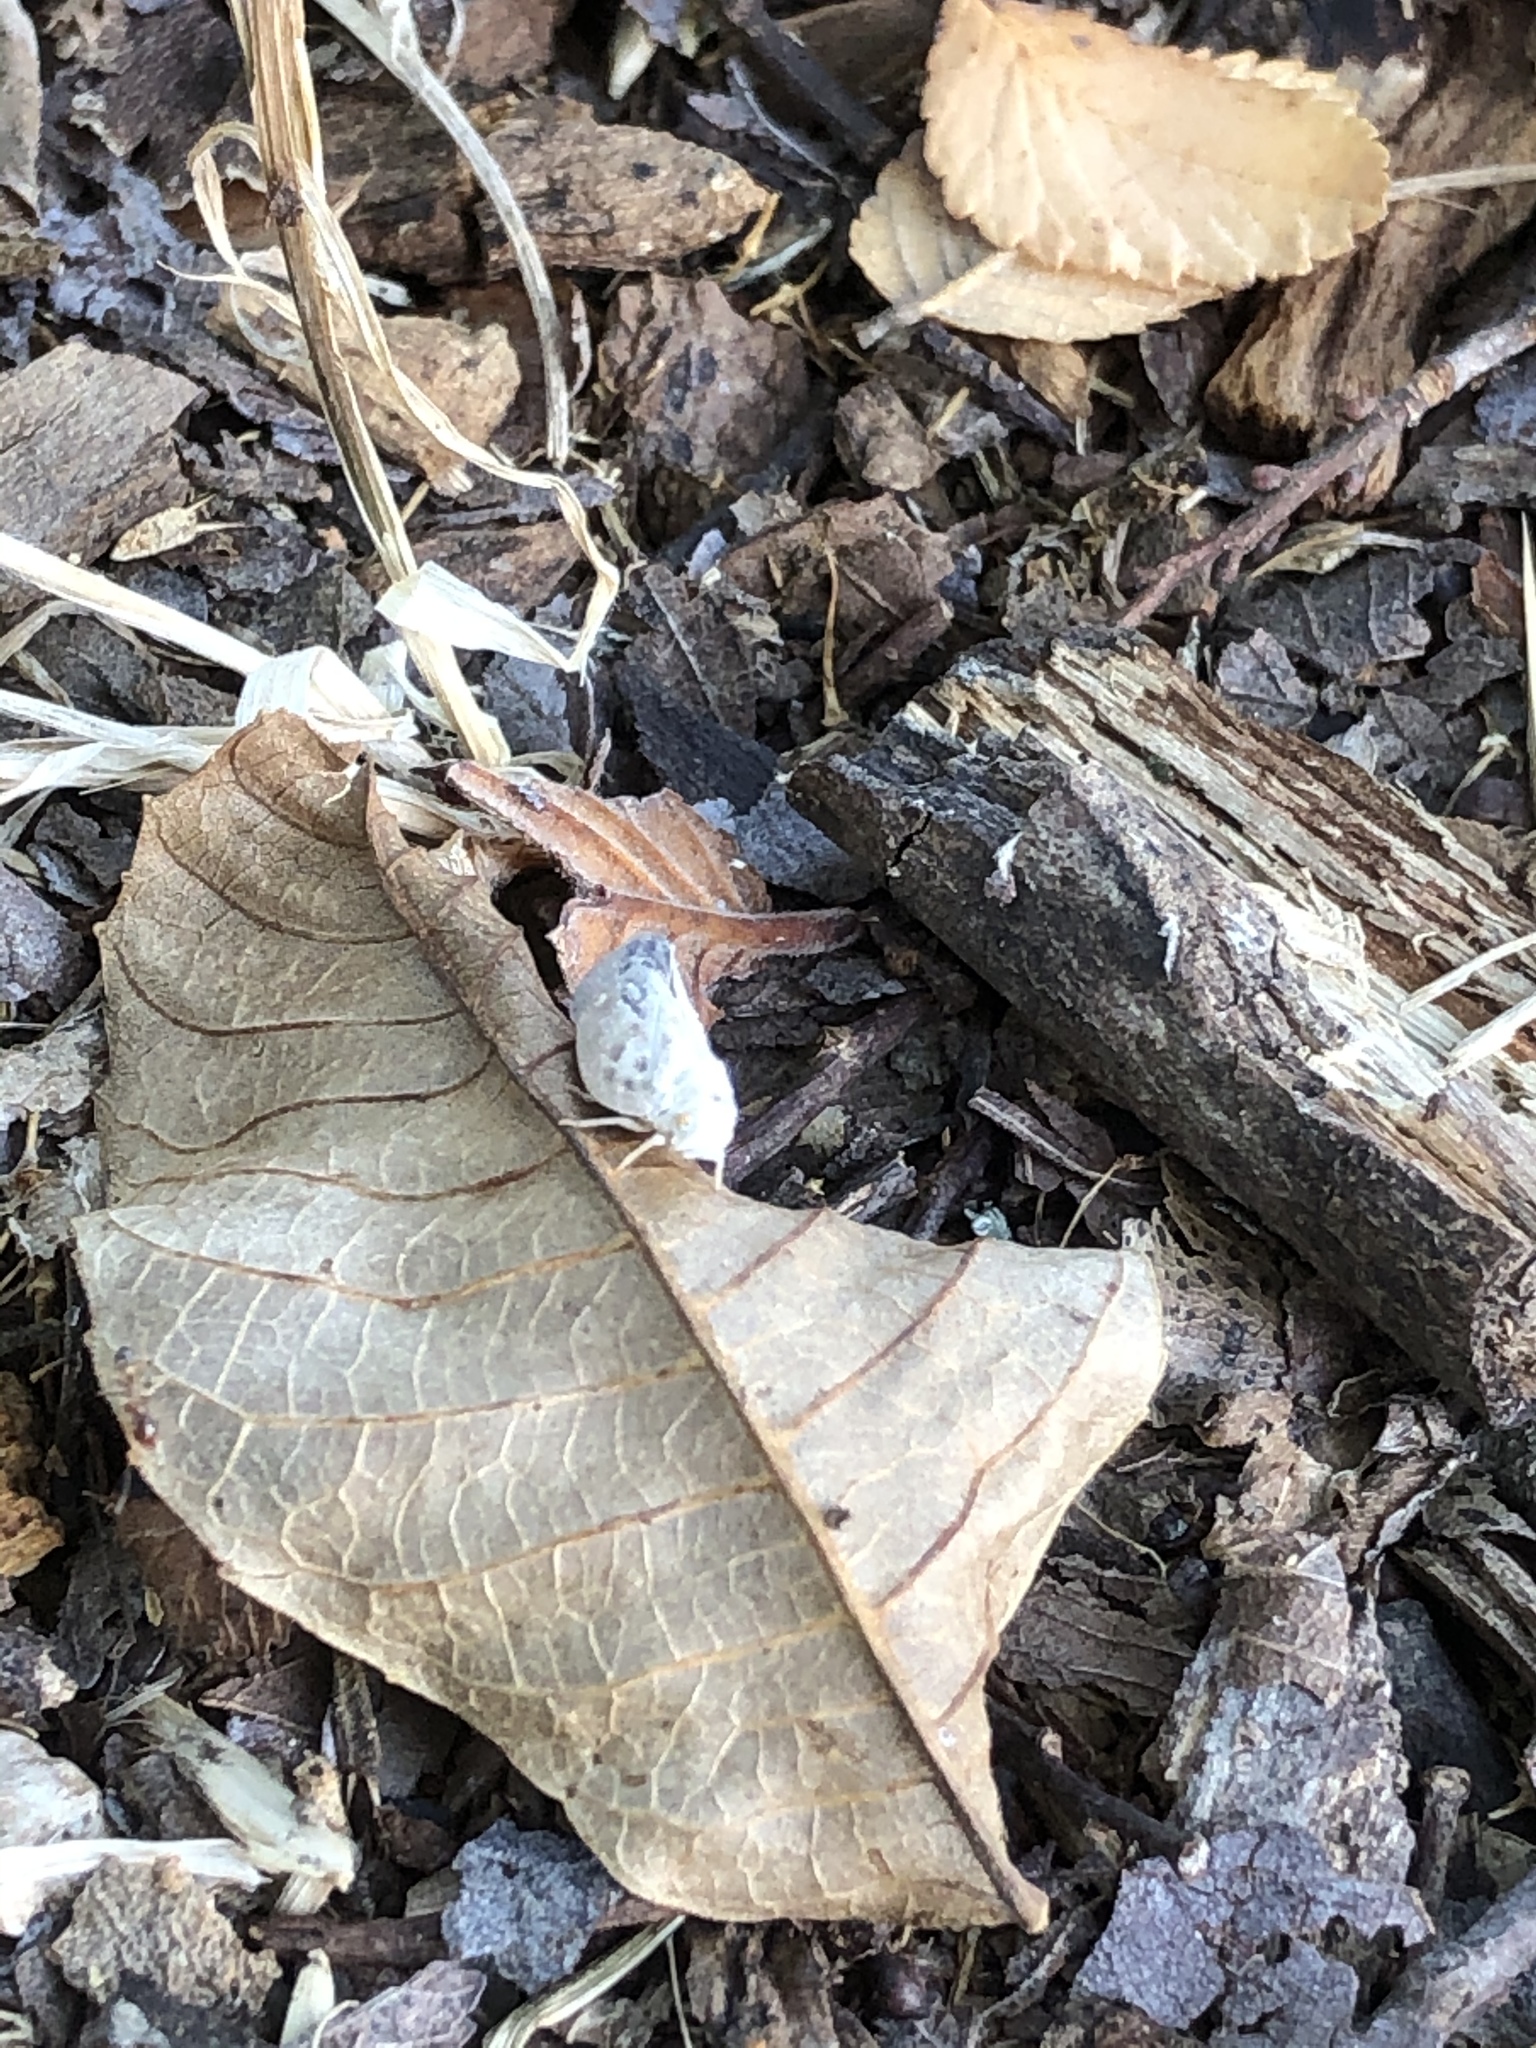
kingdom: Animalia
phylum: Arthropoda
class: Insecta
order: Hemiptera
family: Flatidae
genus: Metcalfa
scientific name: Metcalfa pruinosa
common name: Citrus flatid planthopper
